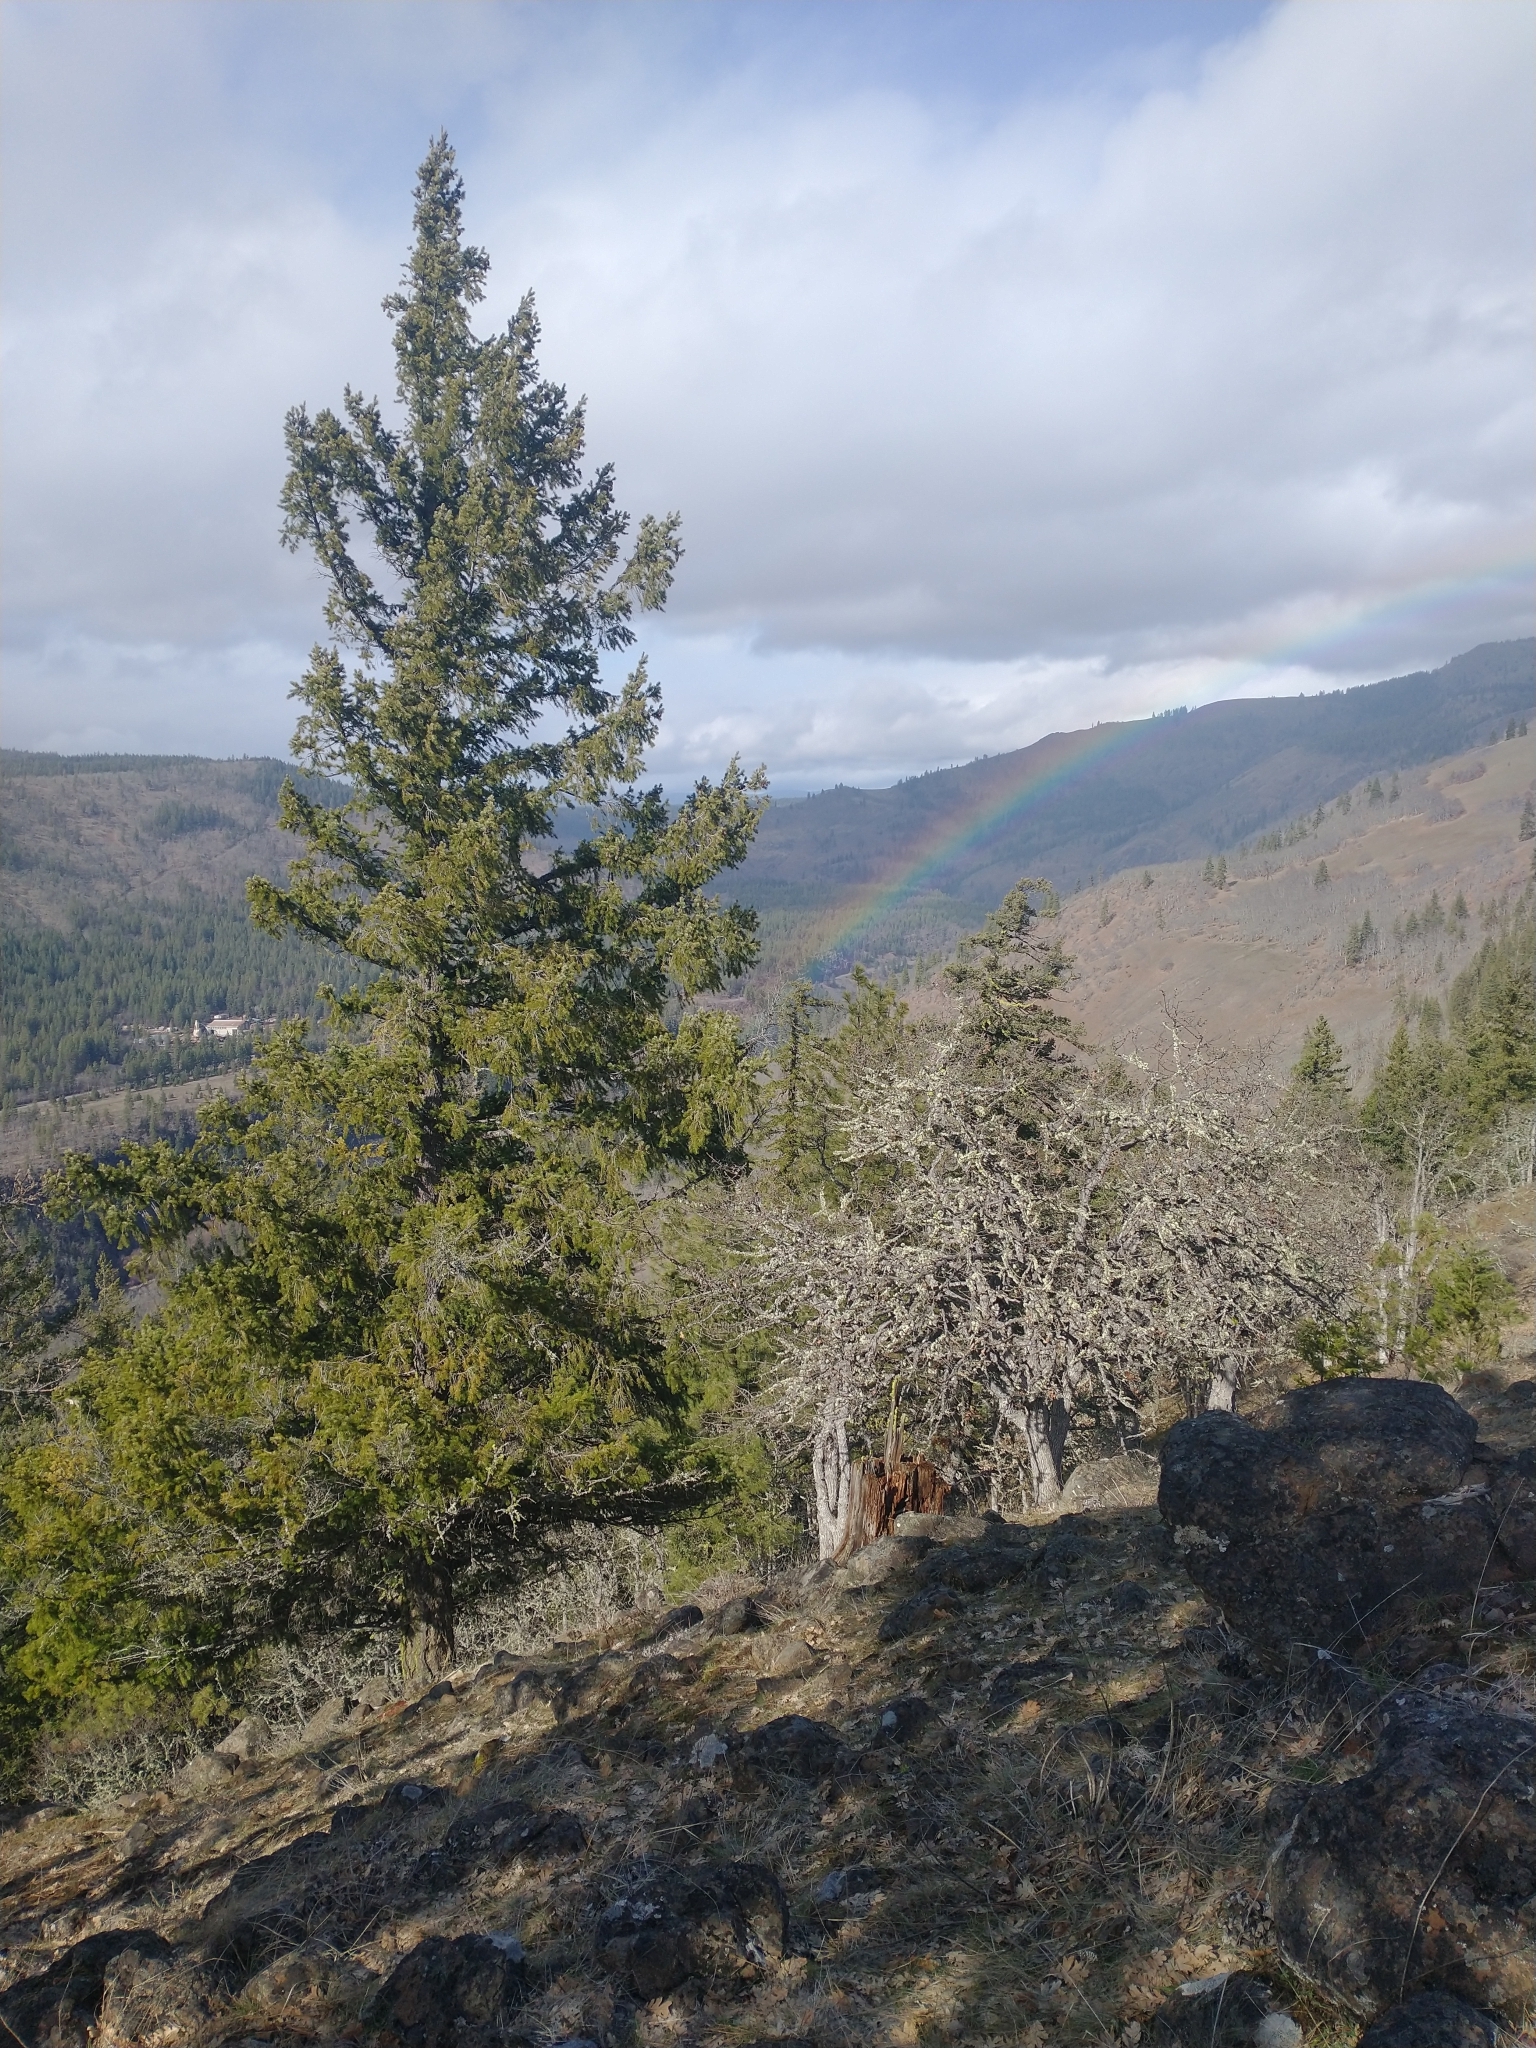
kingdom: Plantae
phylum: Tracheophyta
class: Magnoliopsida
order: Fagales
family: Fagaceae
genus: Quercus
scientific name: Quercus garryana
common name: Garry oak
